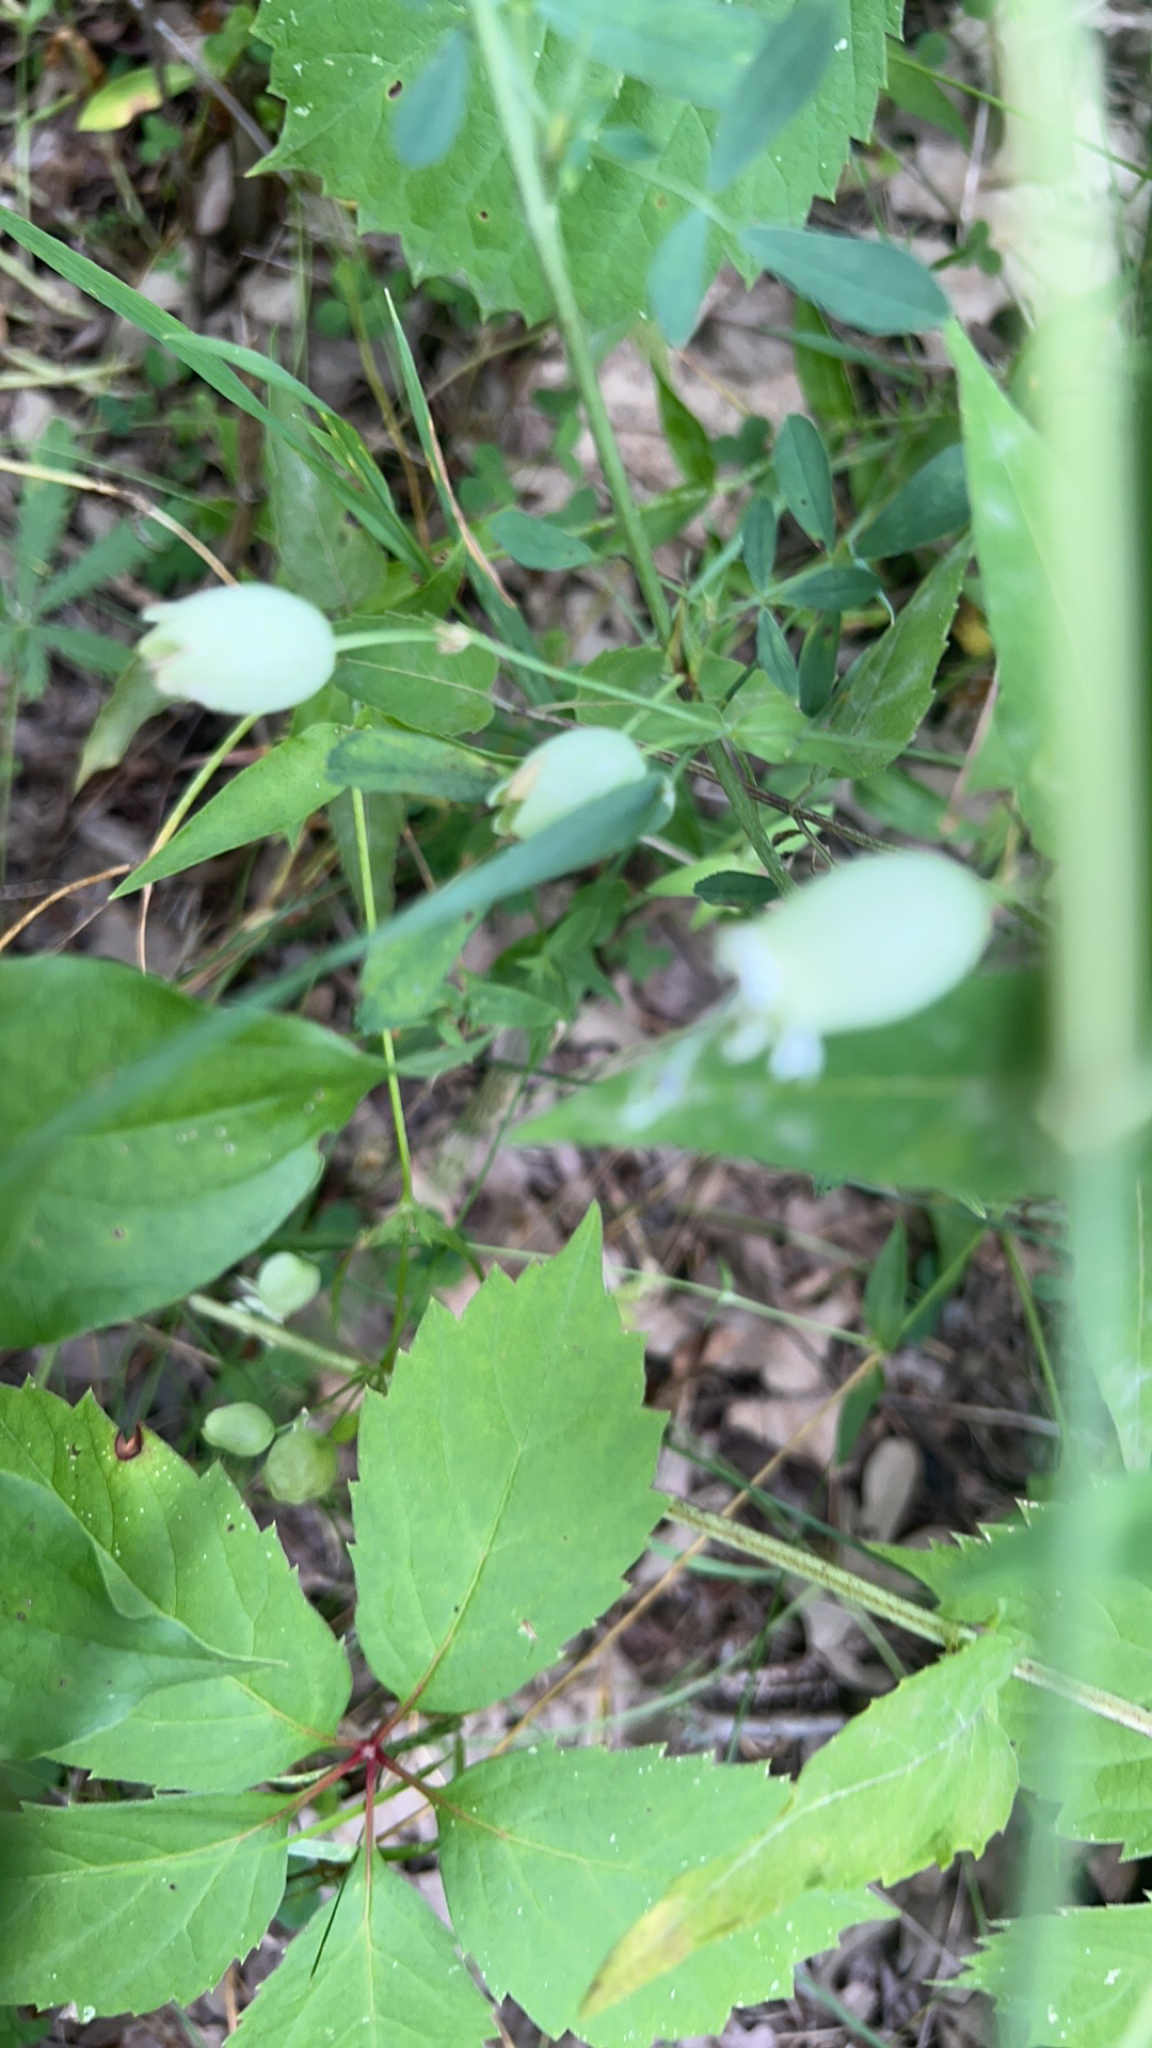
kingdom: Plantae
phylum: Tracheophyta
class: Magnoliopsida
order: Caryophyllales
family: Caryophyllaceae
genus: Silene
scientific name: Silene vulgaris
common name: Bladder campion
